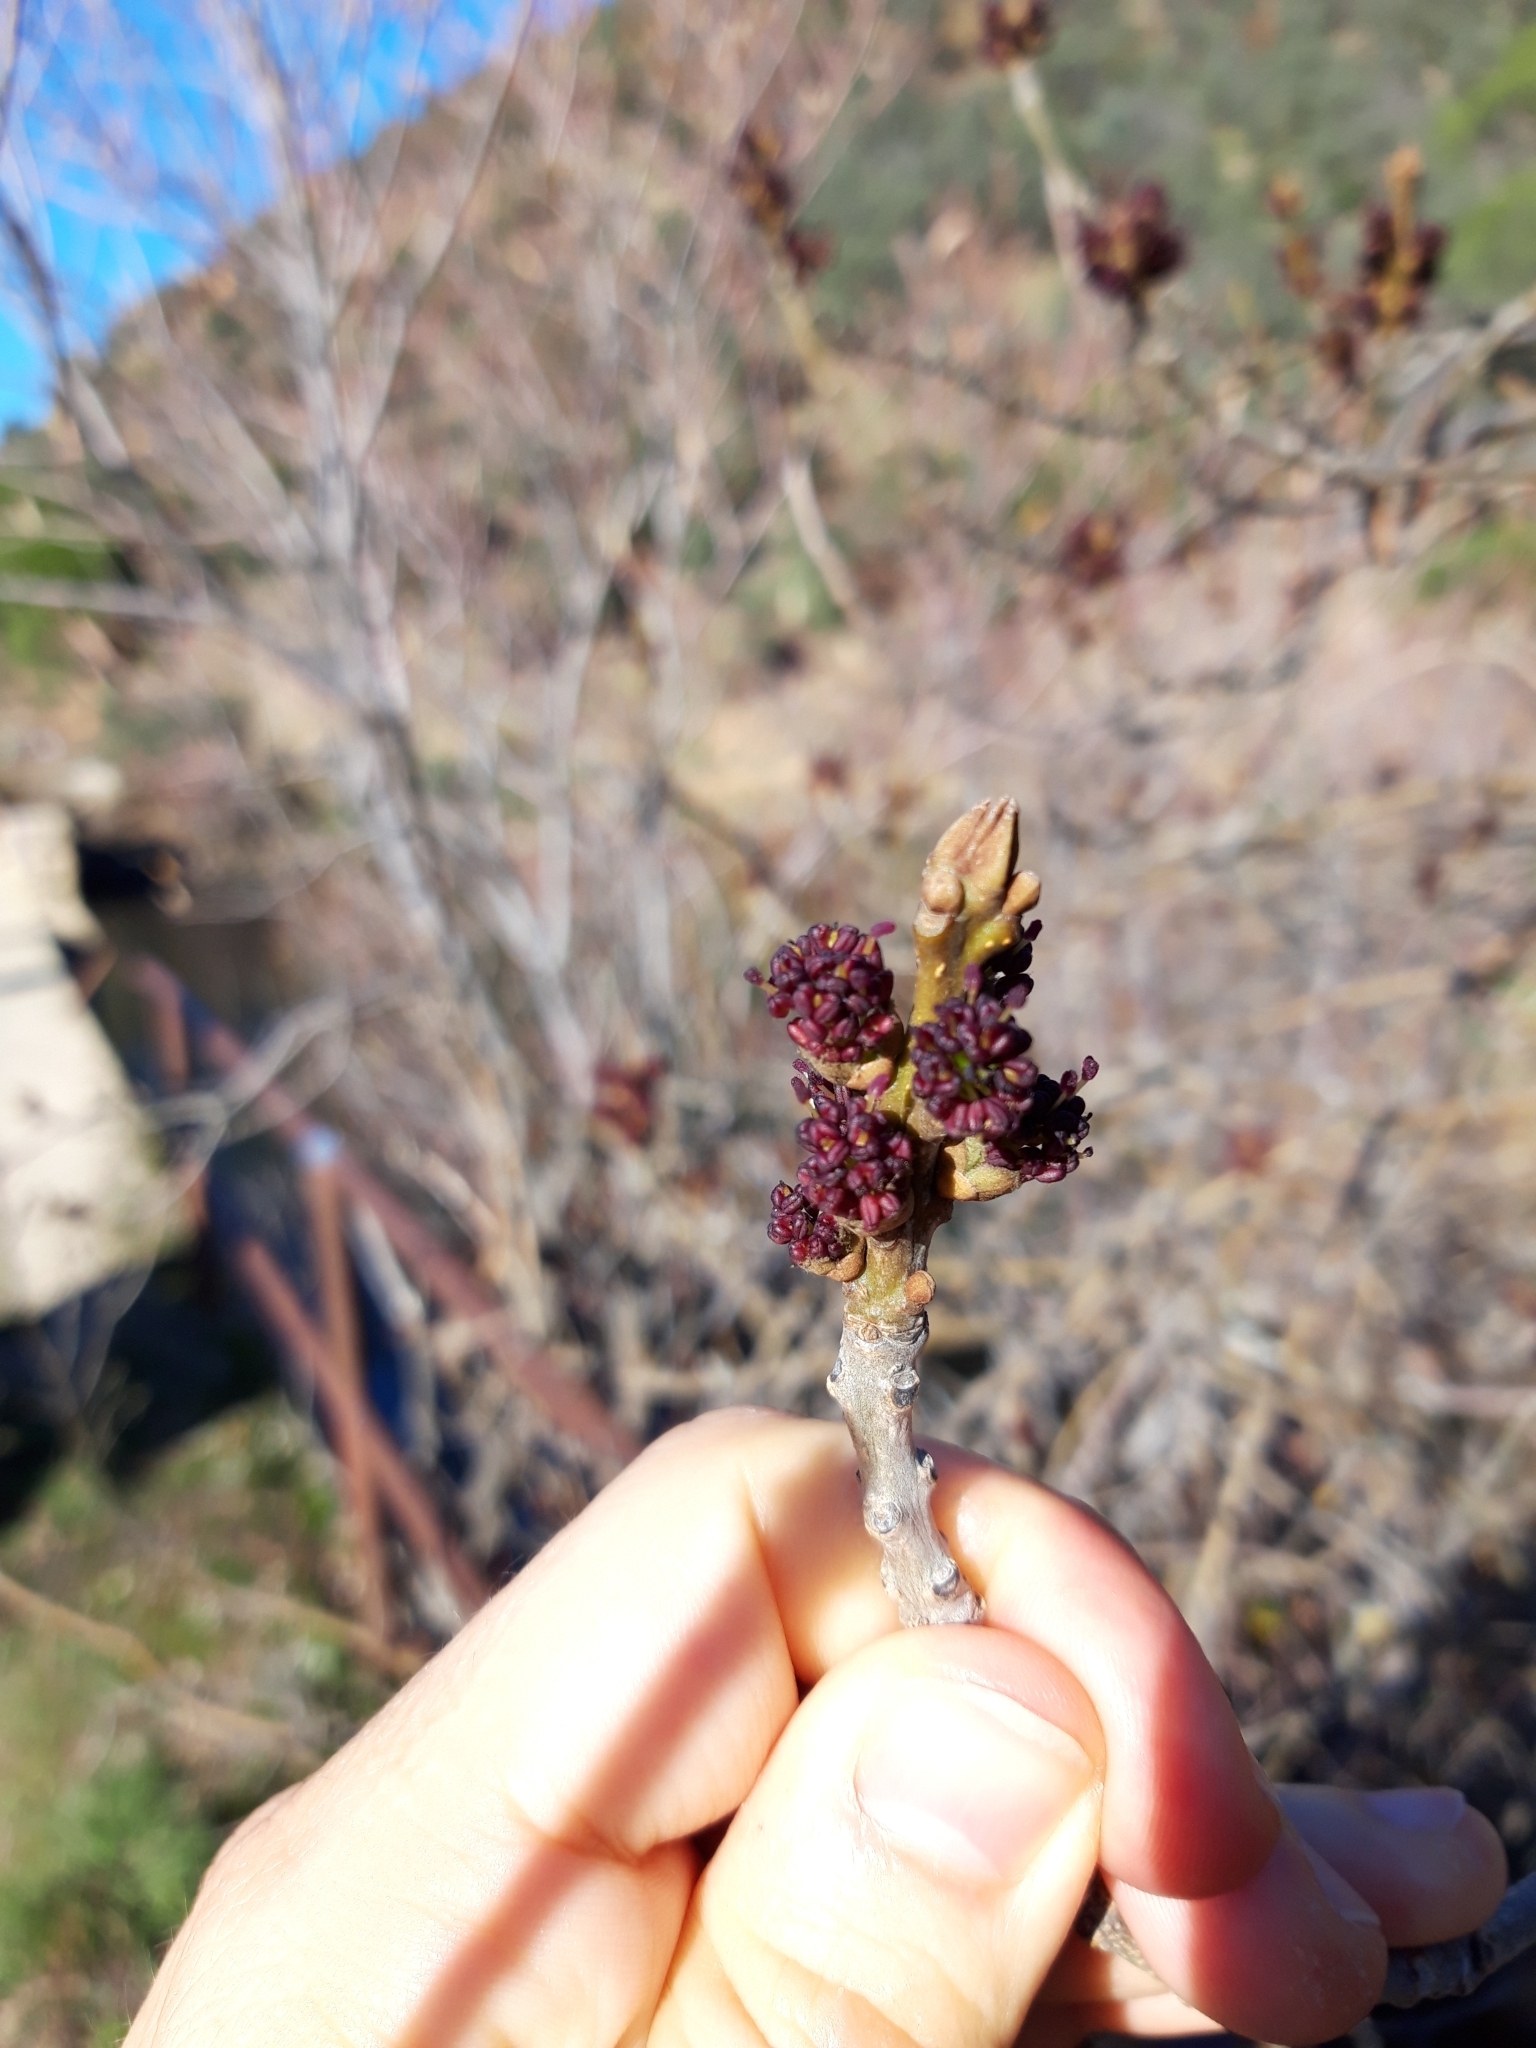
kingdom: Plantae
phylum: Tracheophyta
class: Magnoliopsida
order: Lamiales
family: Oleaceae
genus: Fraxinus
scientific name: Fraxinus angustifolia
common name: Narrow-leafed ash
